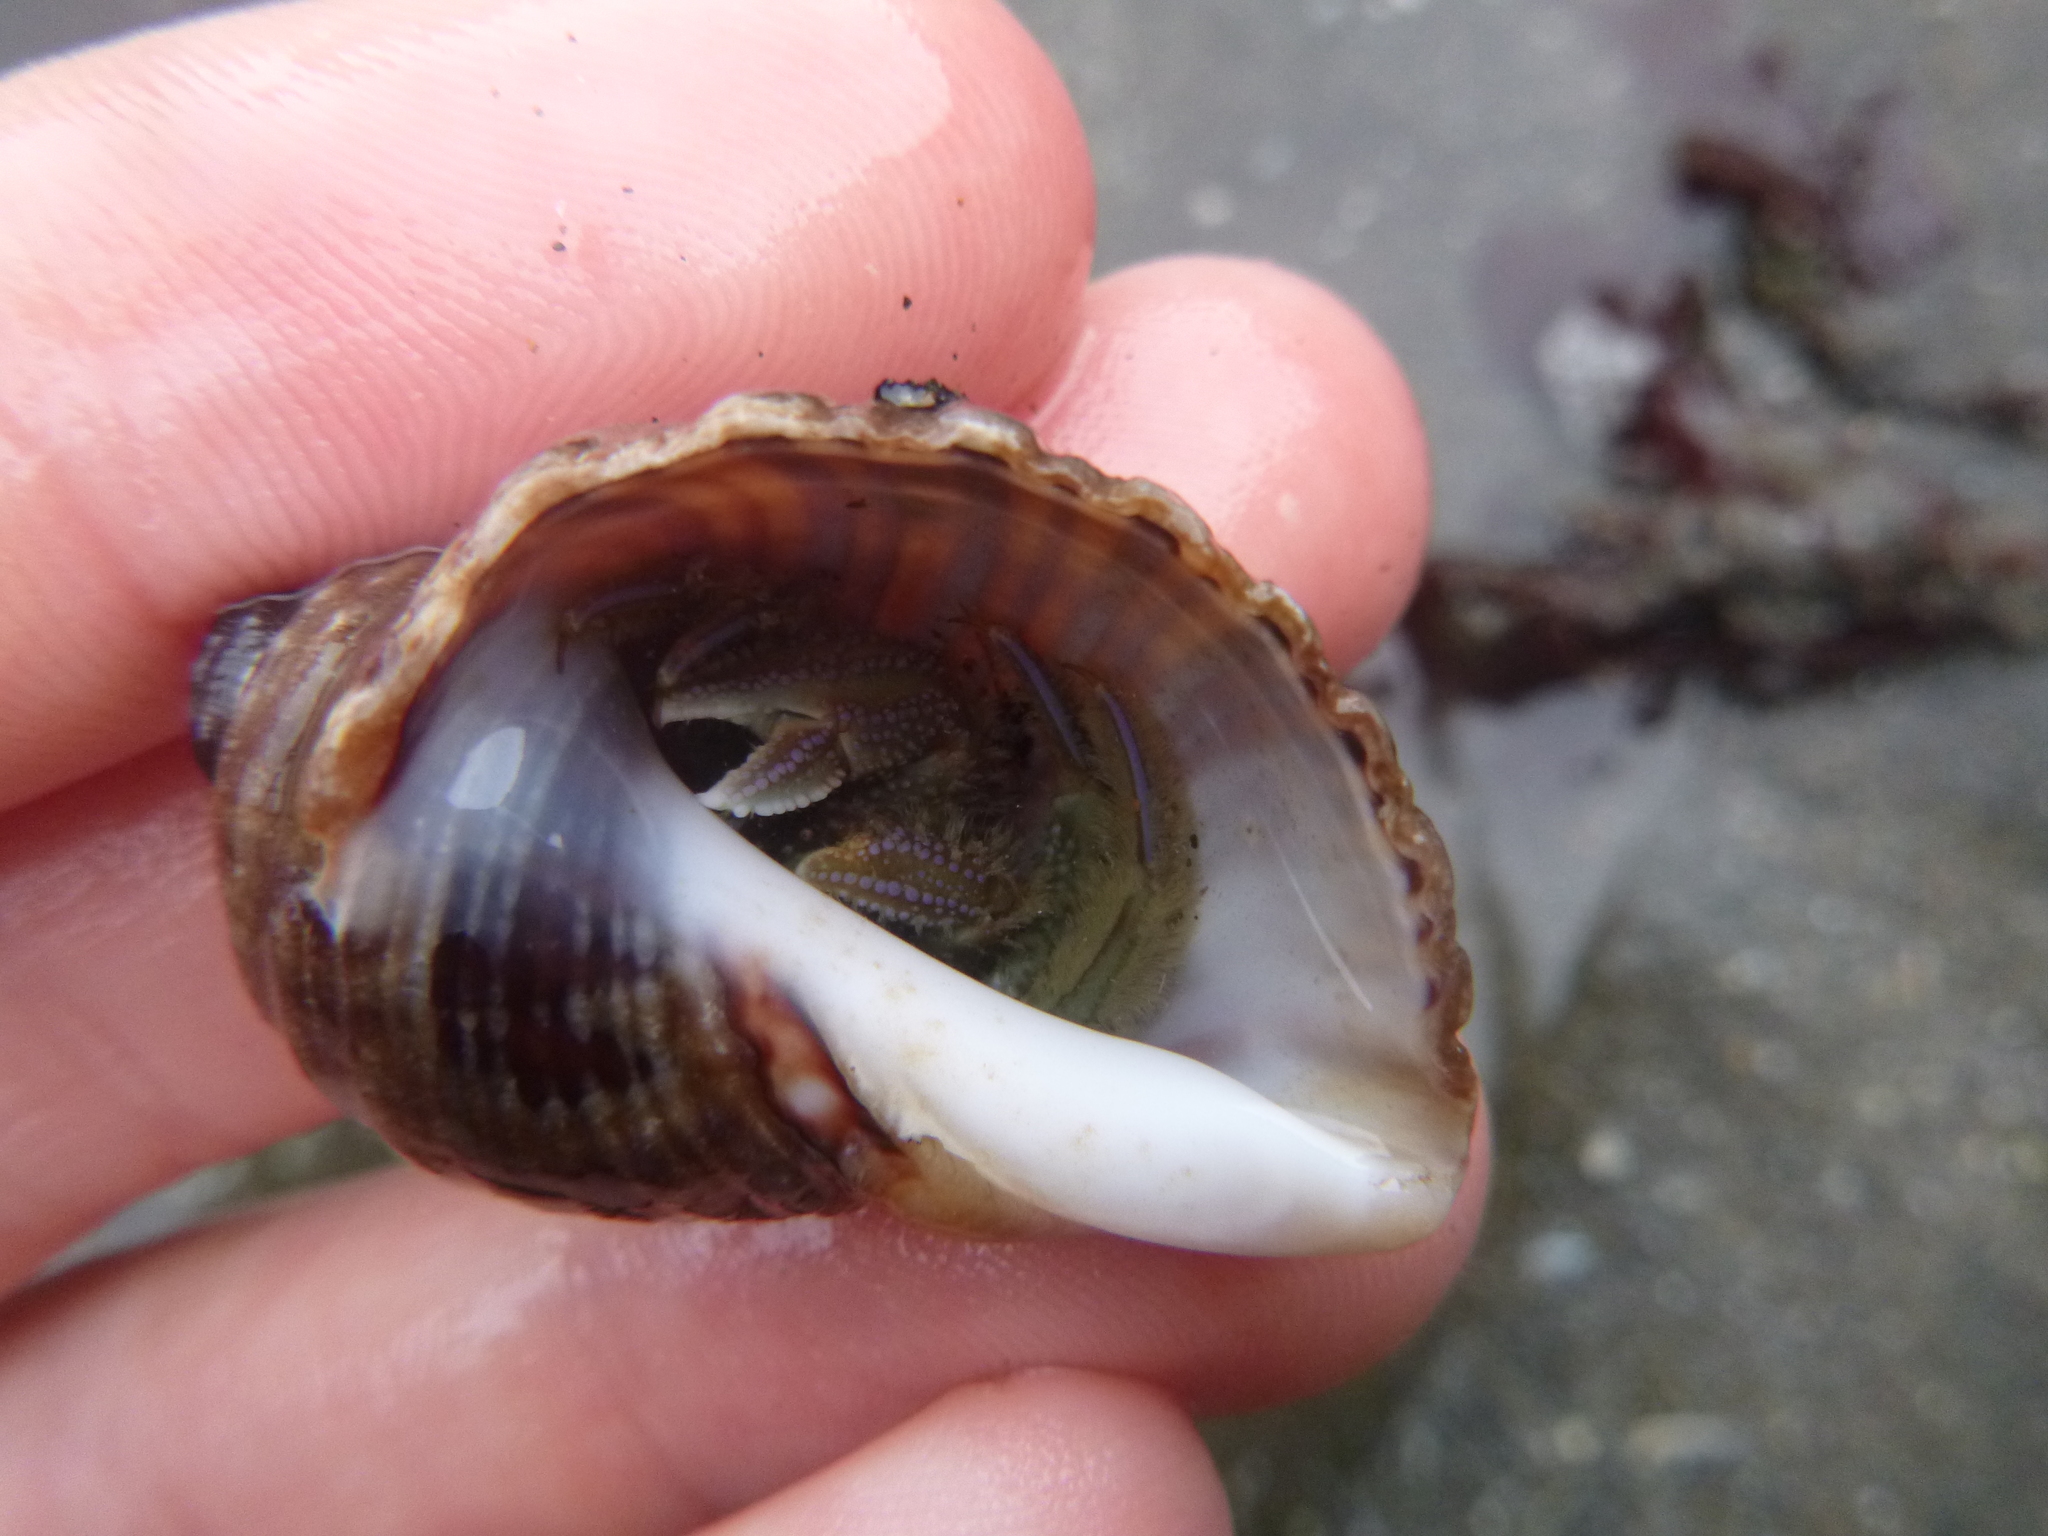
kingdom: Animalia
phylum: Arthropoda
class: Malacostraca
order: Decapoda
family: Paguridae
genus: Pagurus
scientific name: Pagurus novizealandiae
